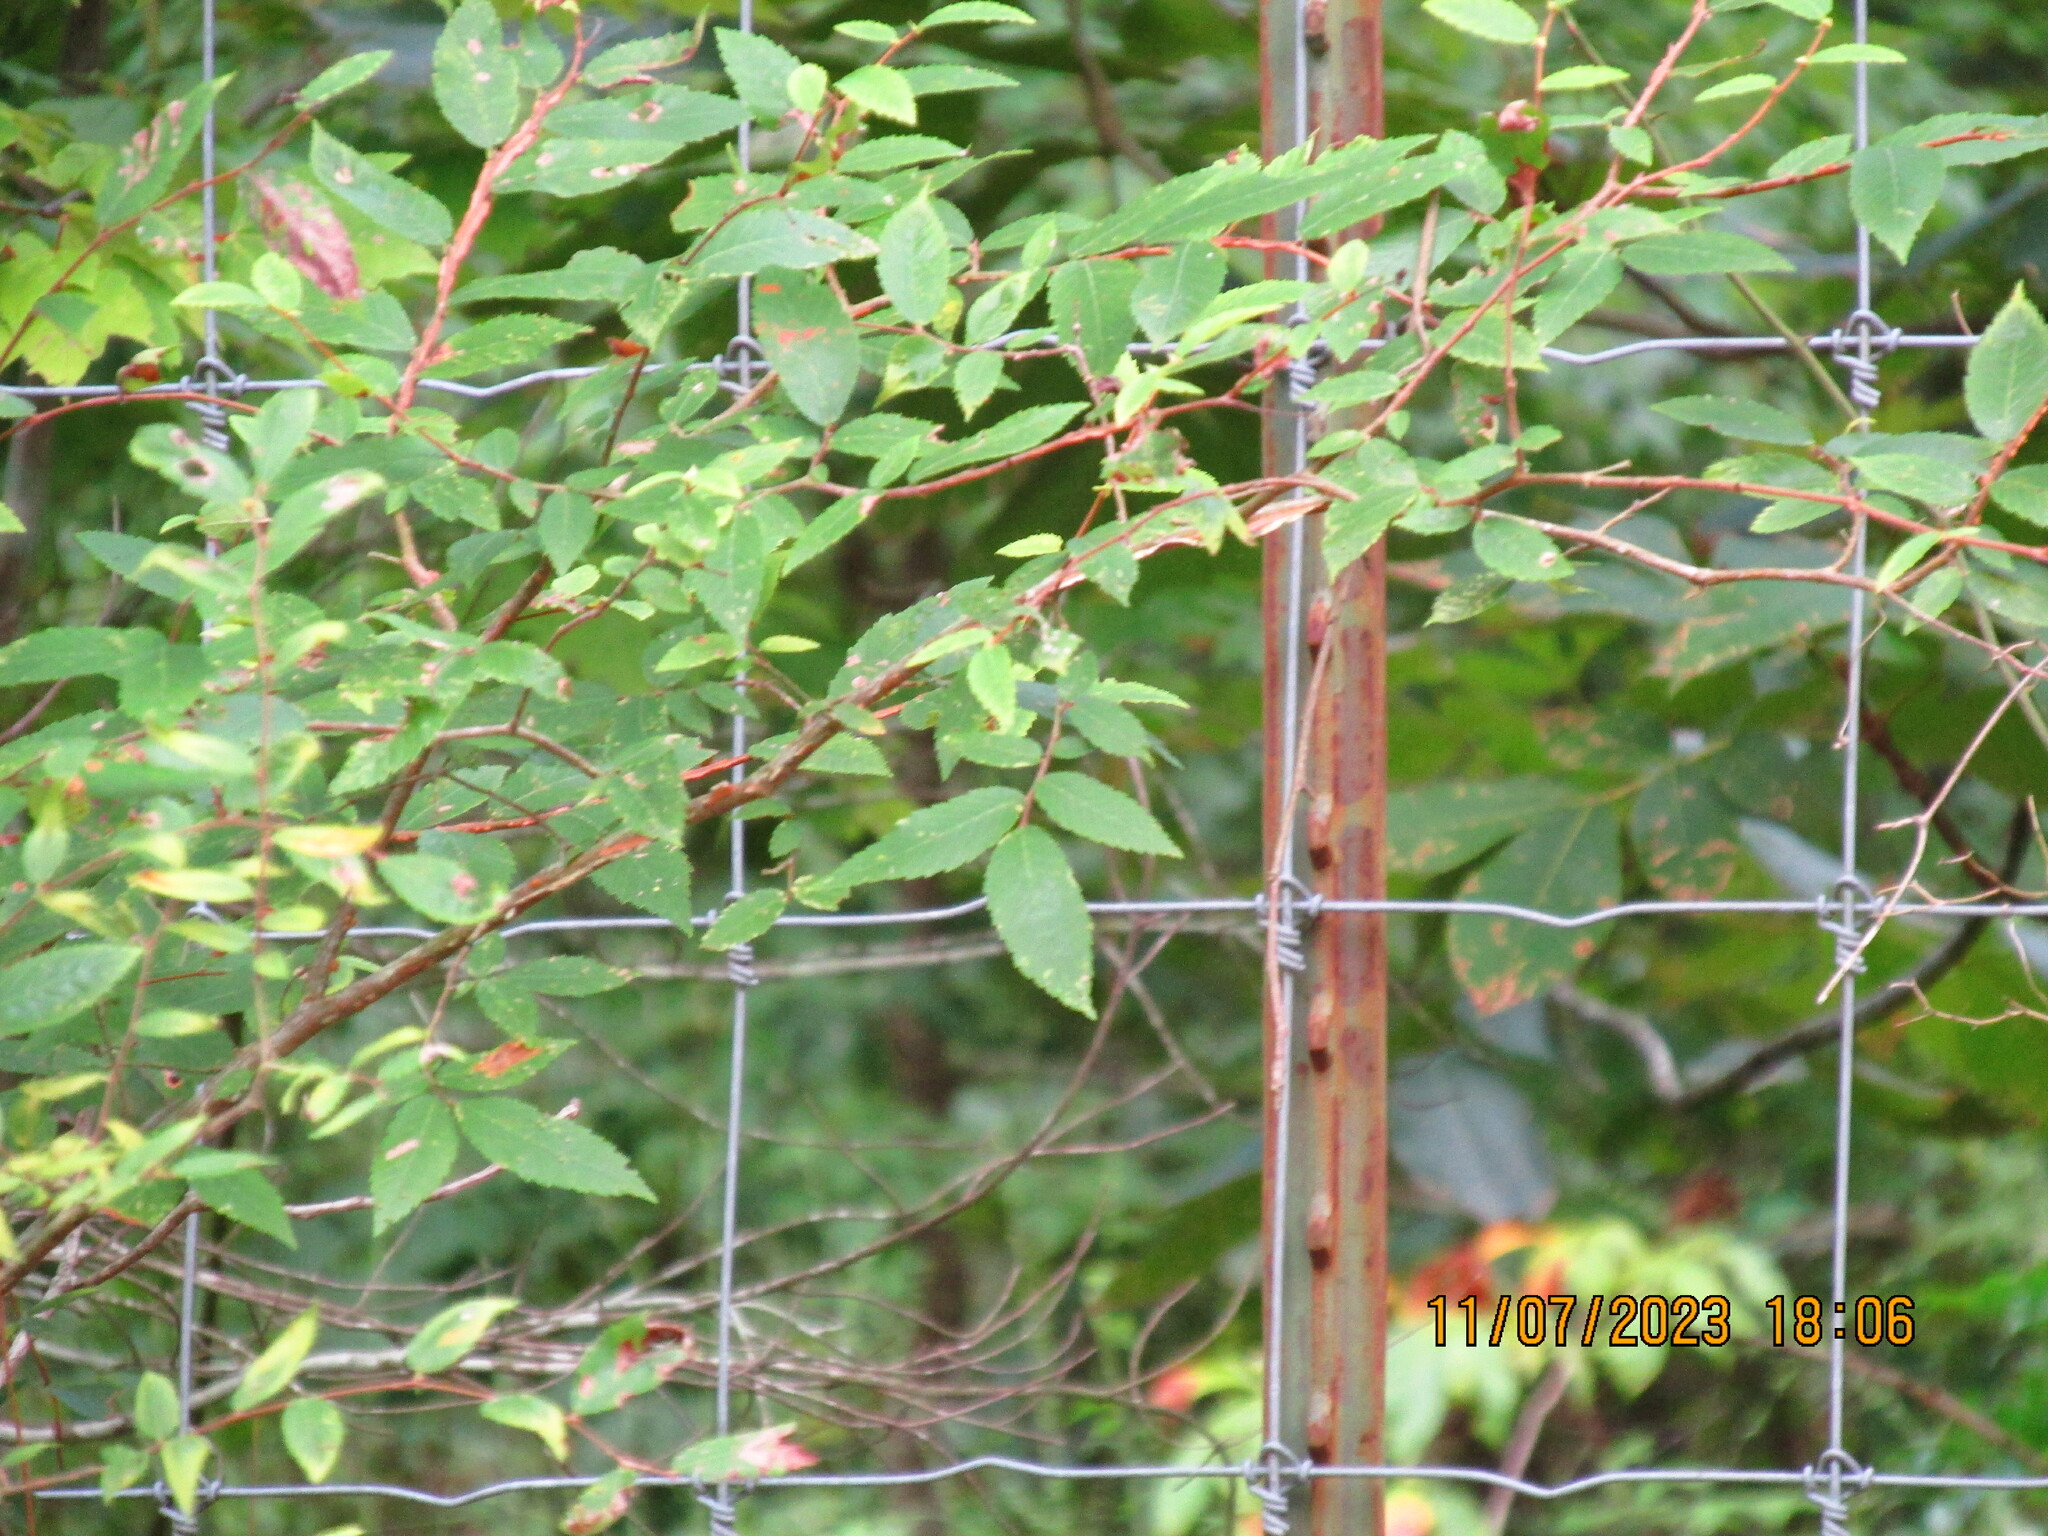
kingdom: Plantae
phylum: Tracheophyta
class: Magnoliopsida
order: Rosales
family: Ulmaceae
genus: Ulmus
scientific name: Ulmus alata
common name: Winged elm
